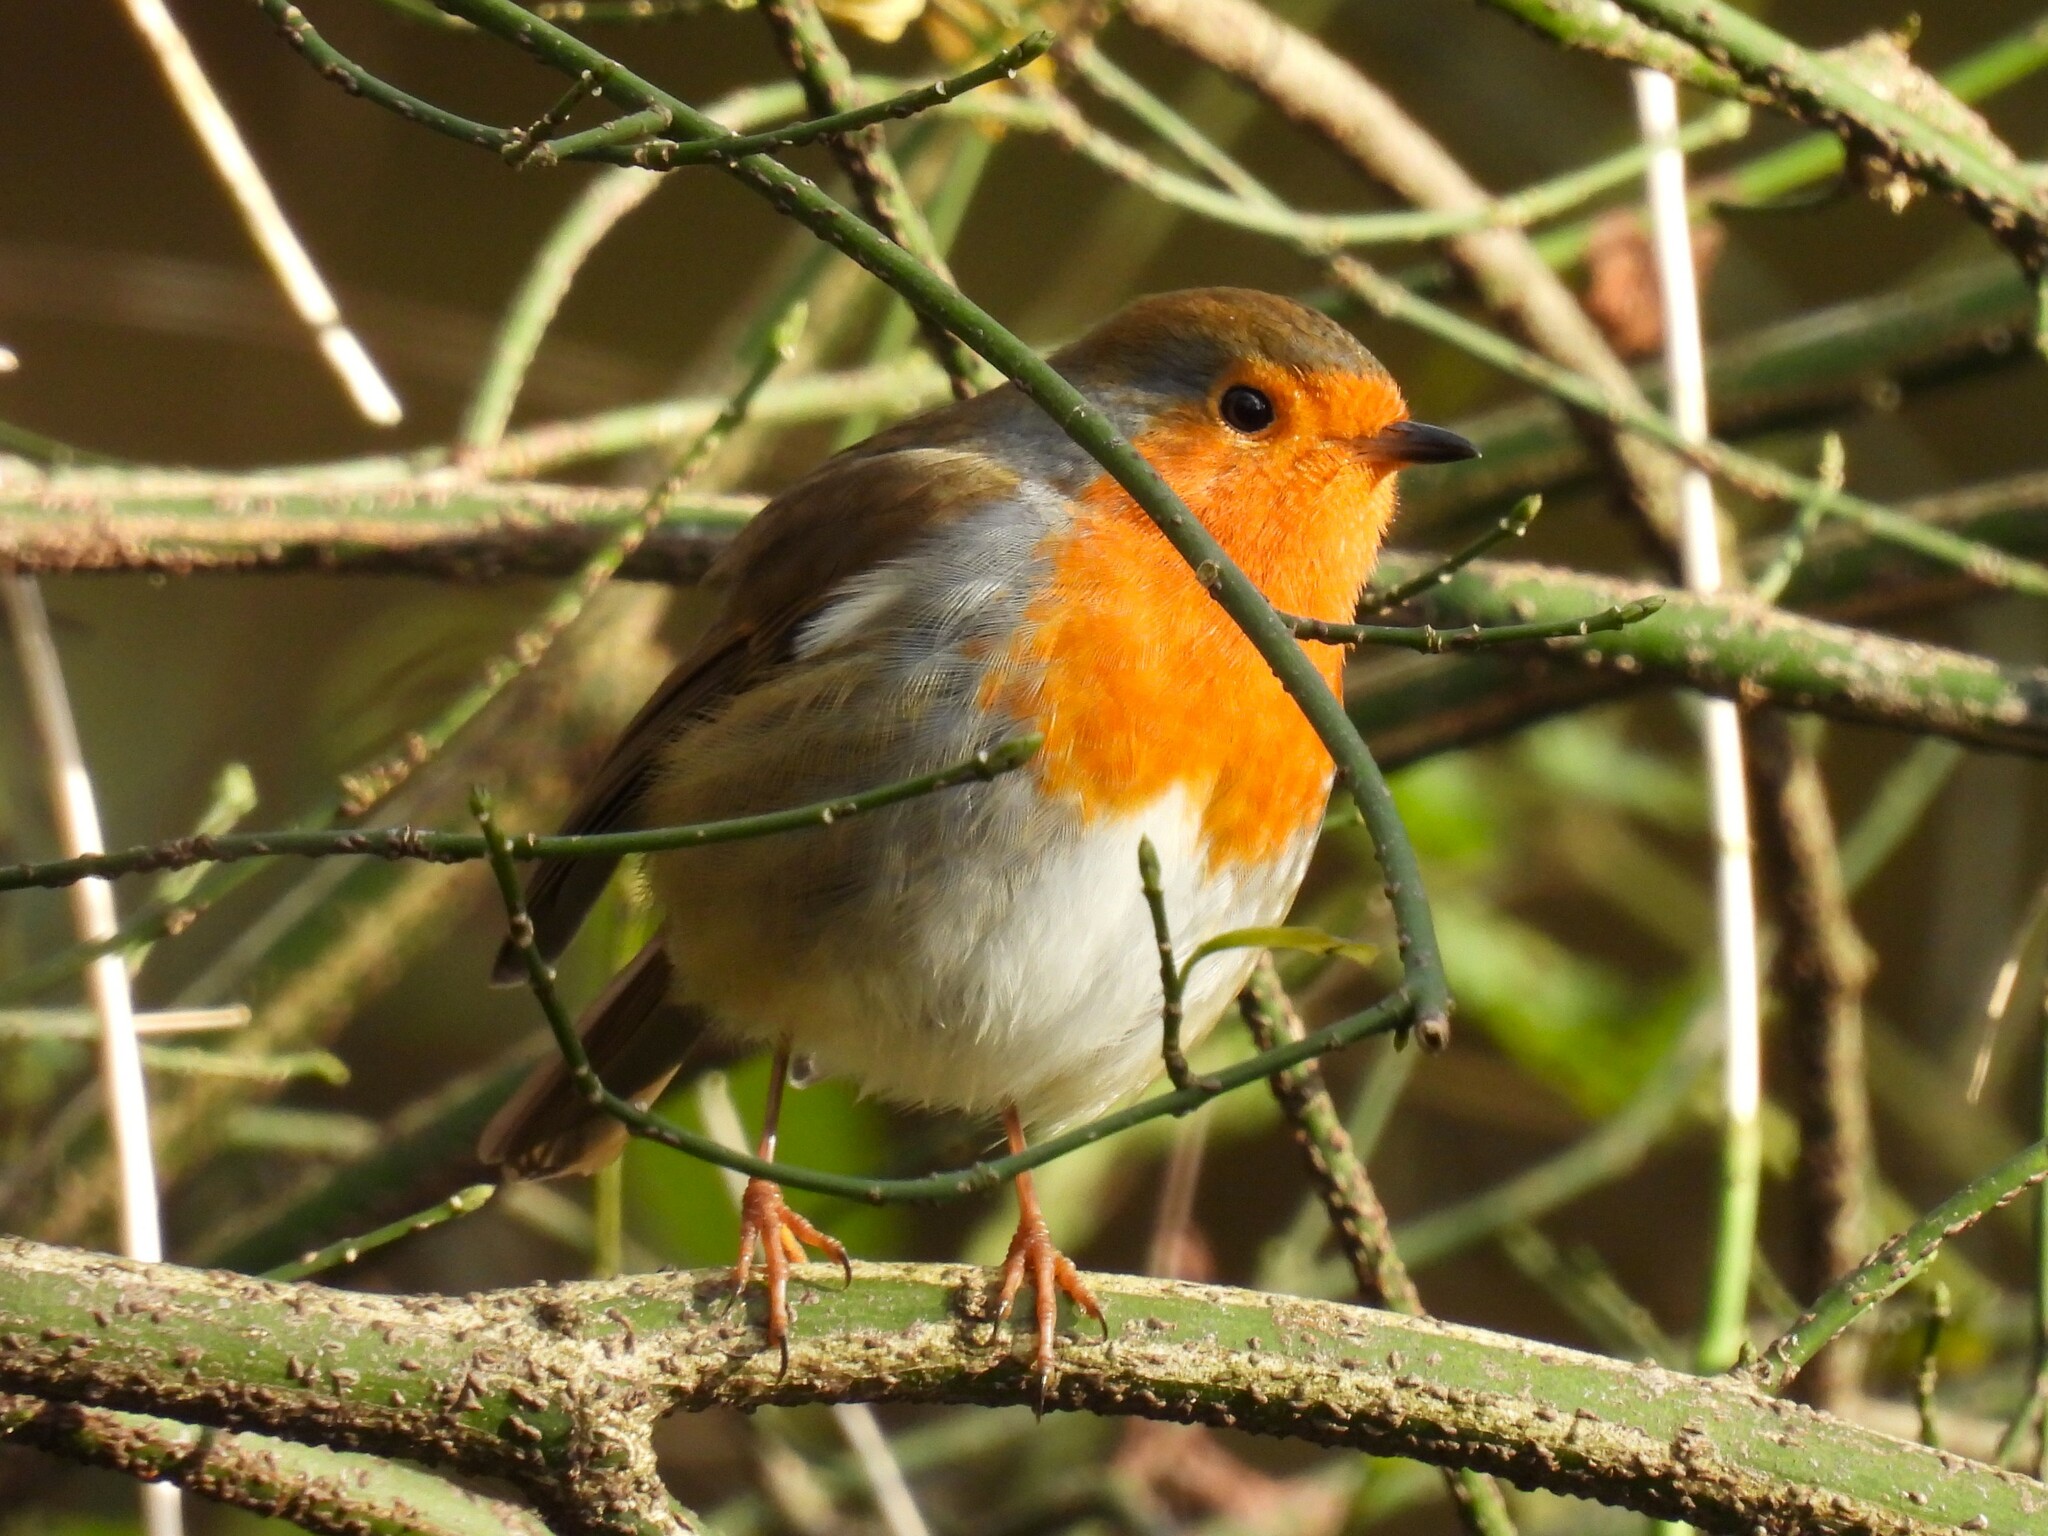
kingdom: Animalia
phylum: Chordata
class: Aves
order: Passeriformes
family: Muscicapidae
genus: Erithacus
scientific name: Erithacus rubecula
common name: European robin
